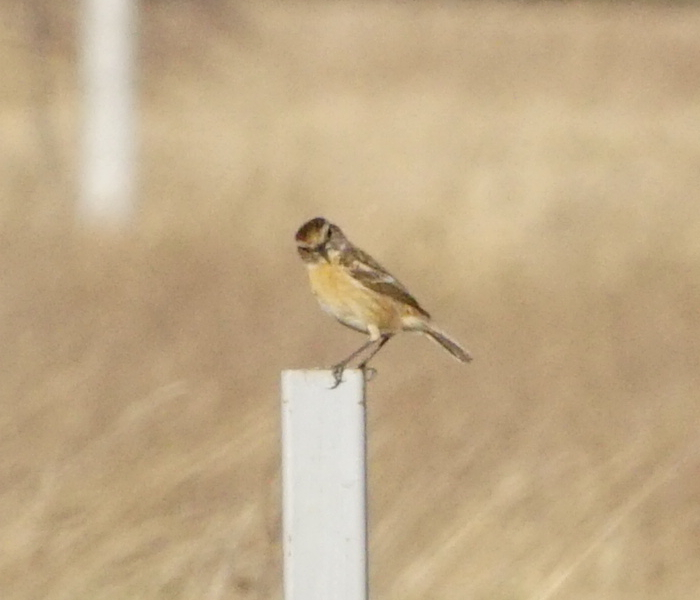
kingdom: Animalia
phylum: Chordata
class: Aves
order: Passeriformes
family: Muscicapidae
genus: Saxicola
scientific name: Saxicola rubicola
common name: European stonechat
